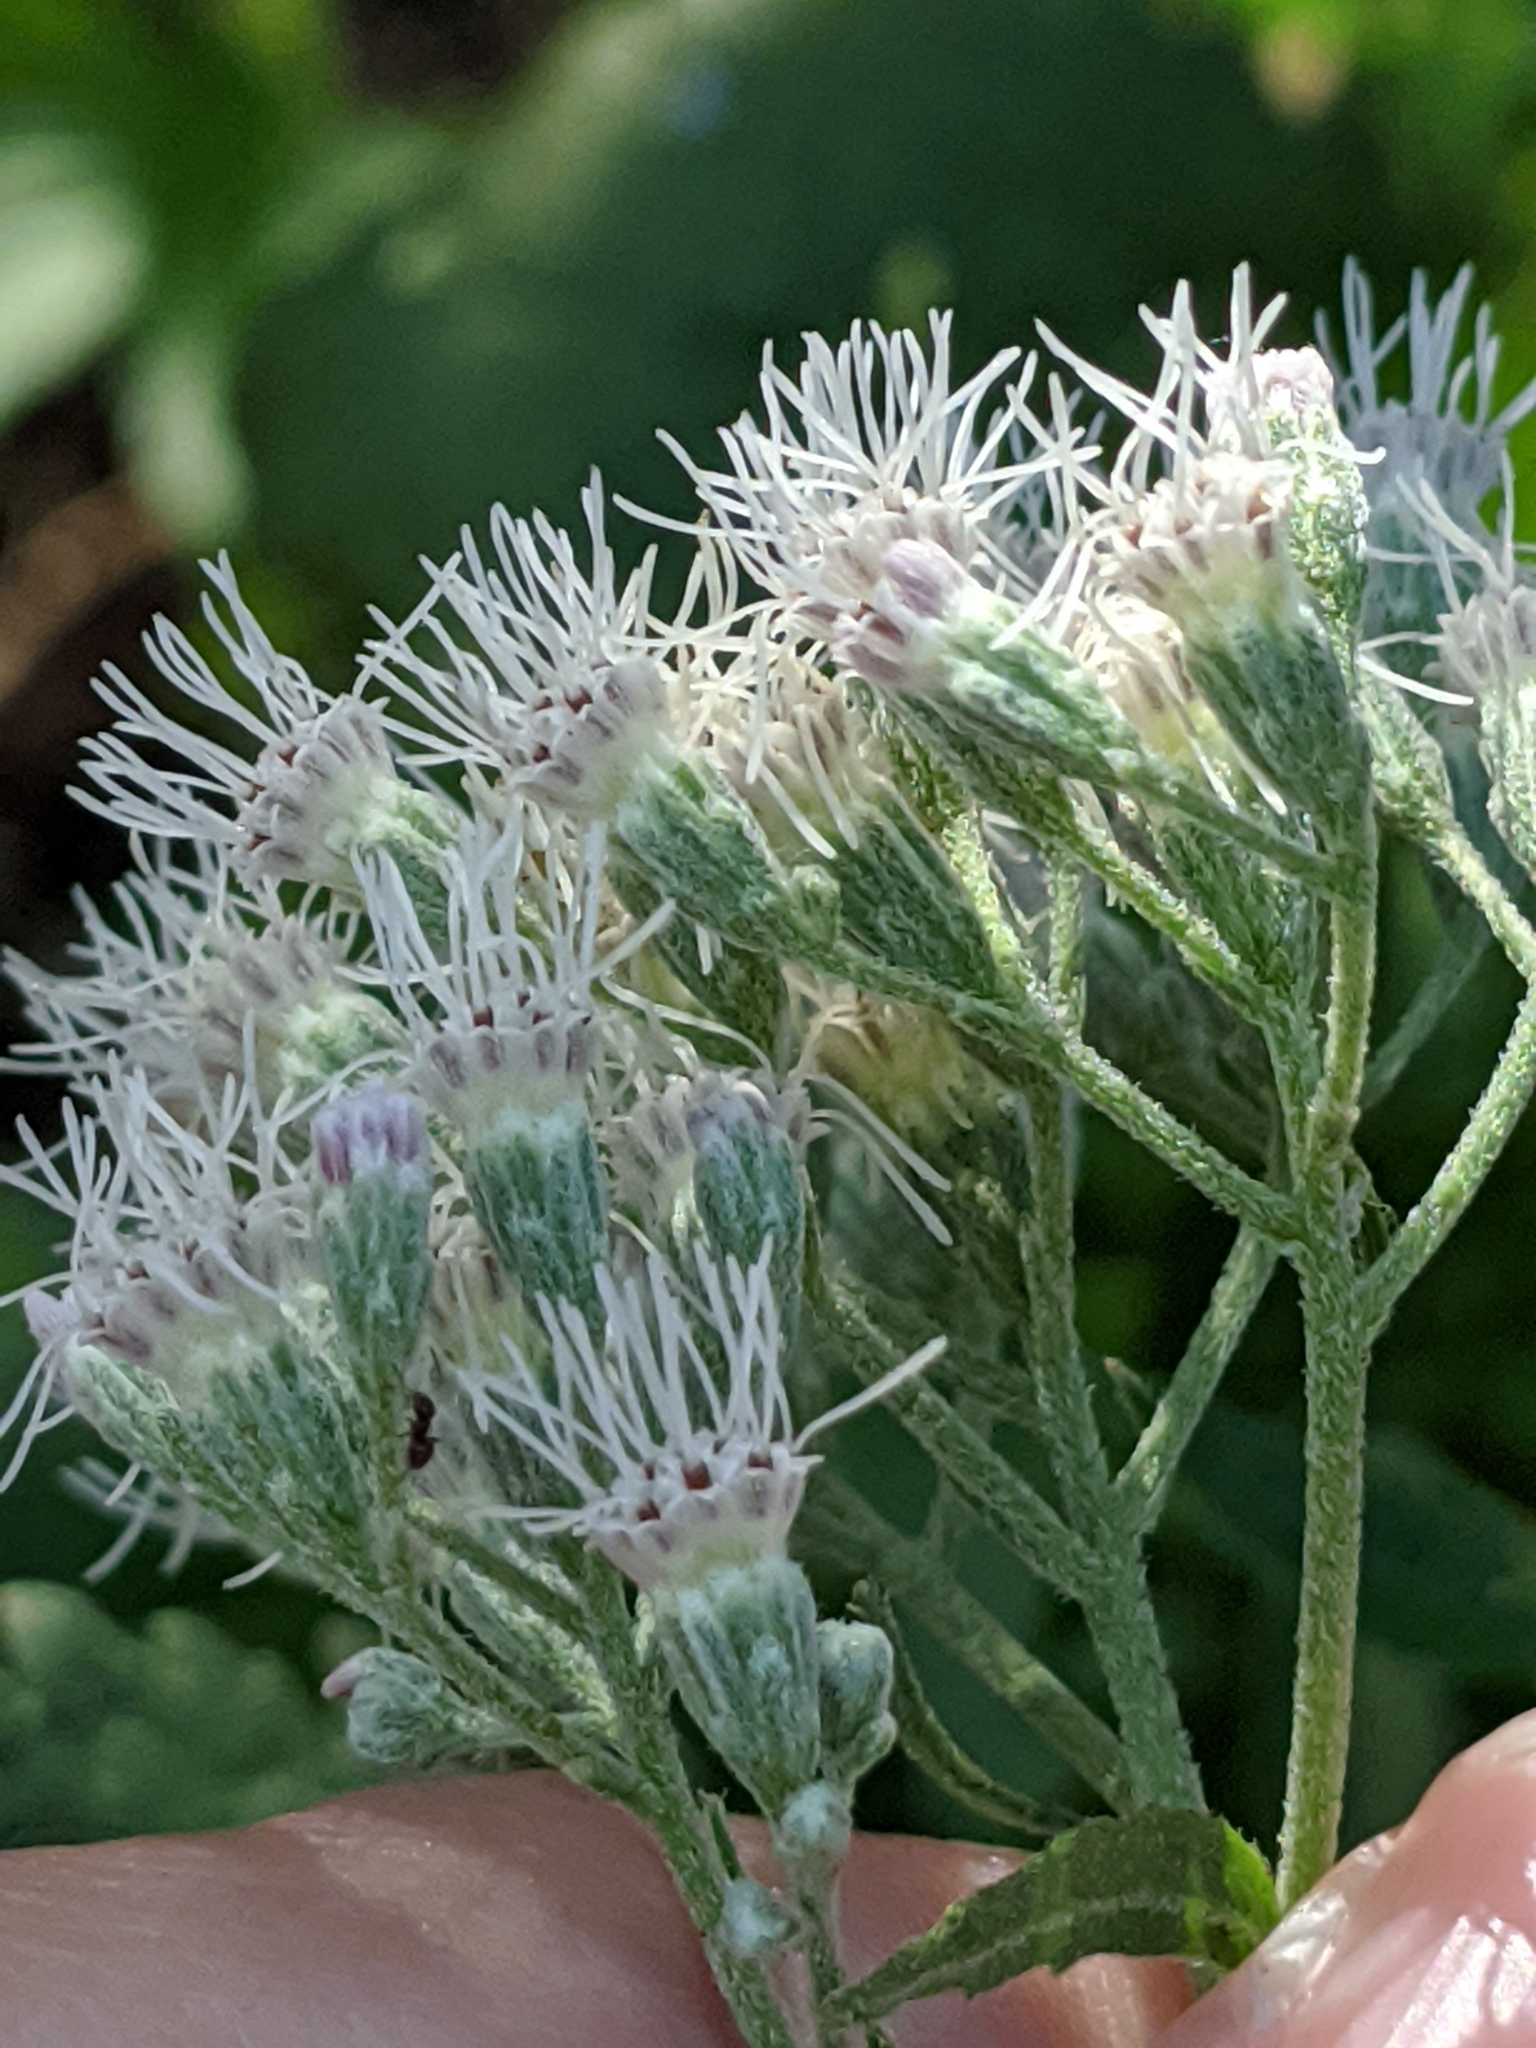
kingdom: Plantae
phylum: Tracheophyta
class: Magnoliopsida
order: Asterales
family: Asteraceae
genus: Eupatorium
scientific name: Eupatorium serotinum
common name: Late boneset
